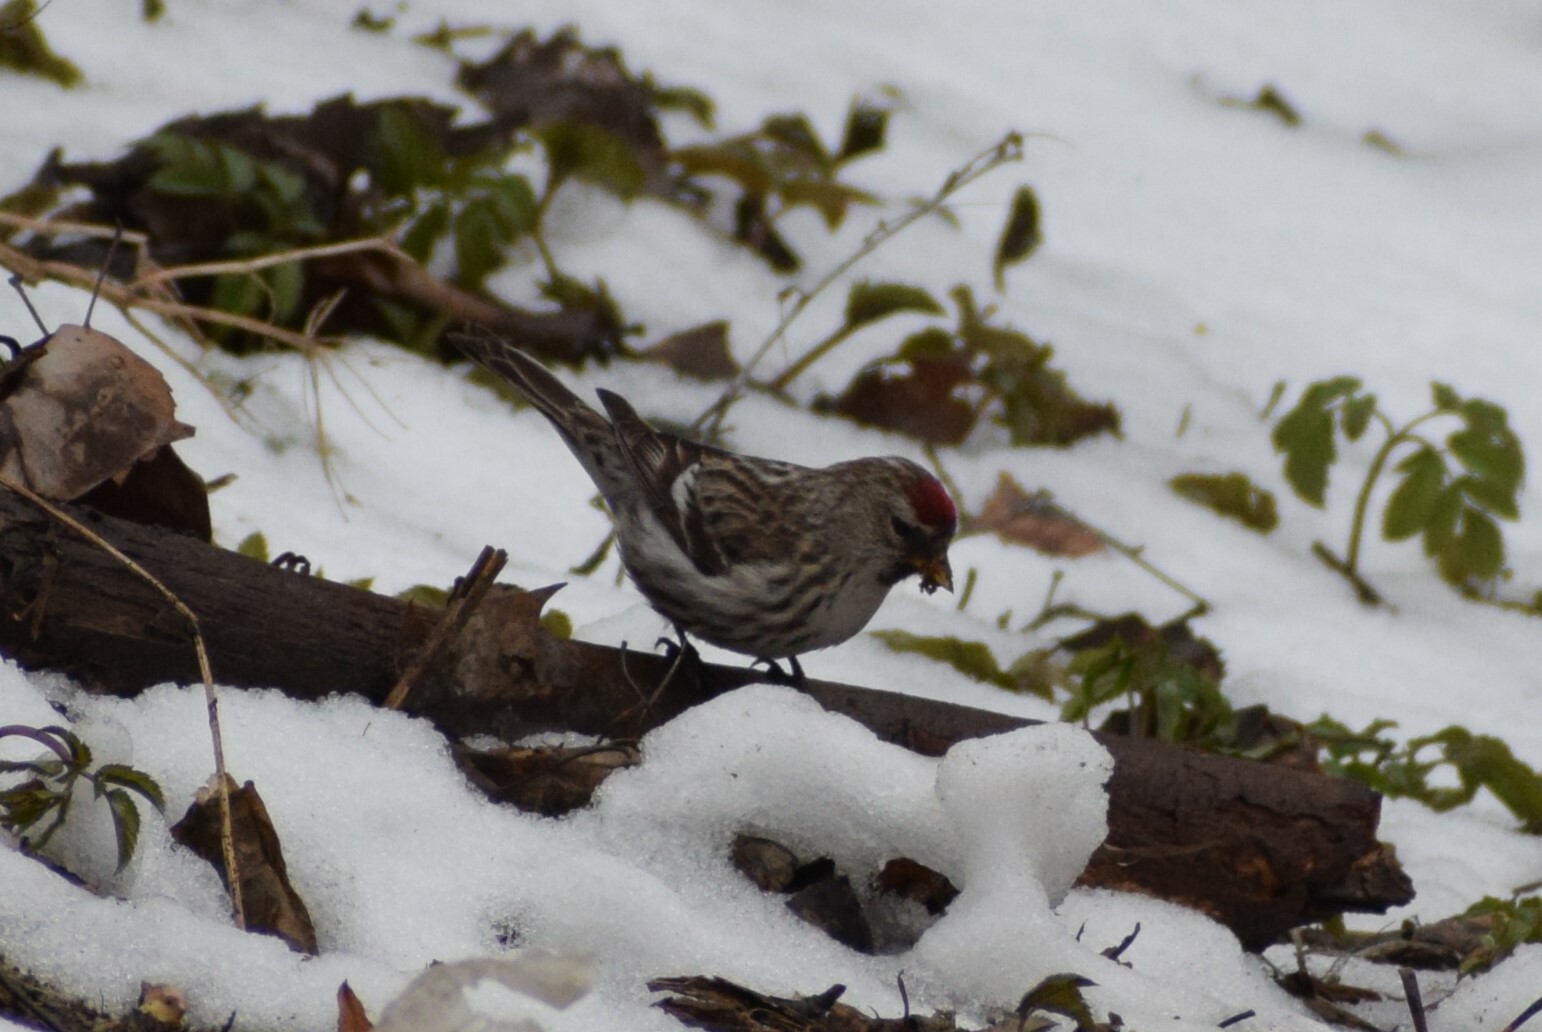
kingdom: Animalia
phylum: Chordata
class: Aves
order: Passeriformes
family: Fringillidae
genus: Acanthis
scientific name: Acanthis flammea
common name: Common redpoll
